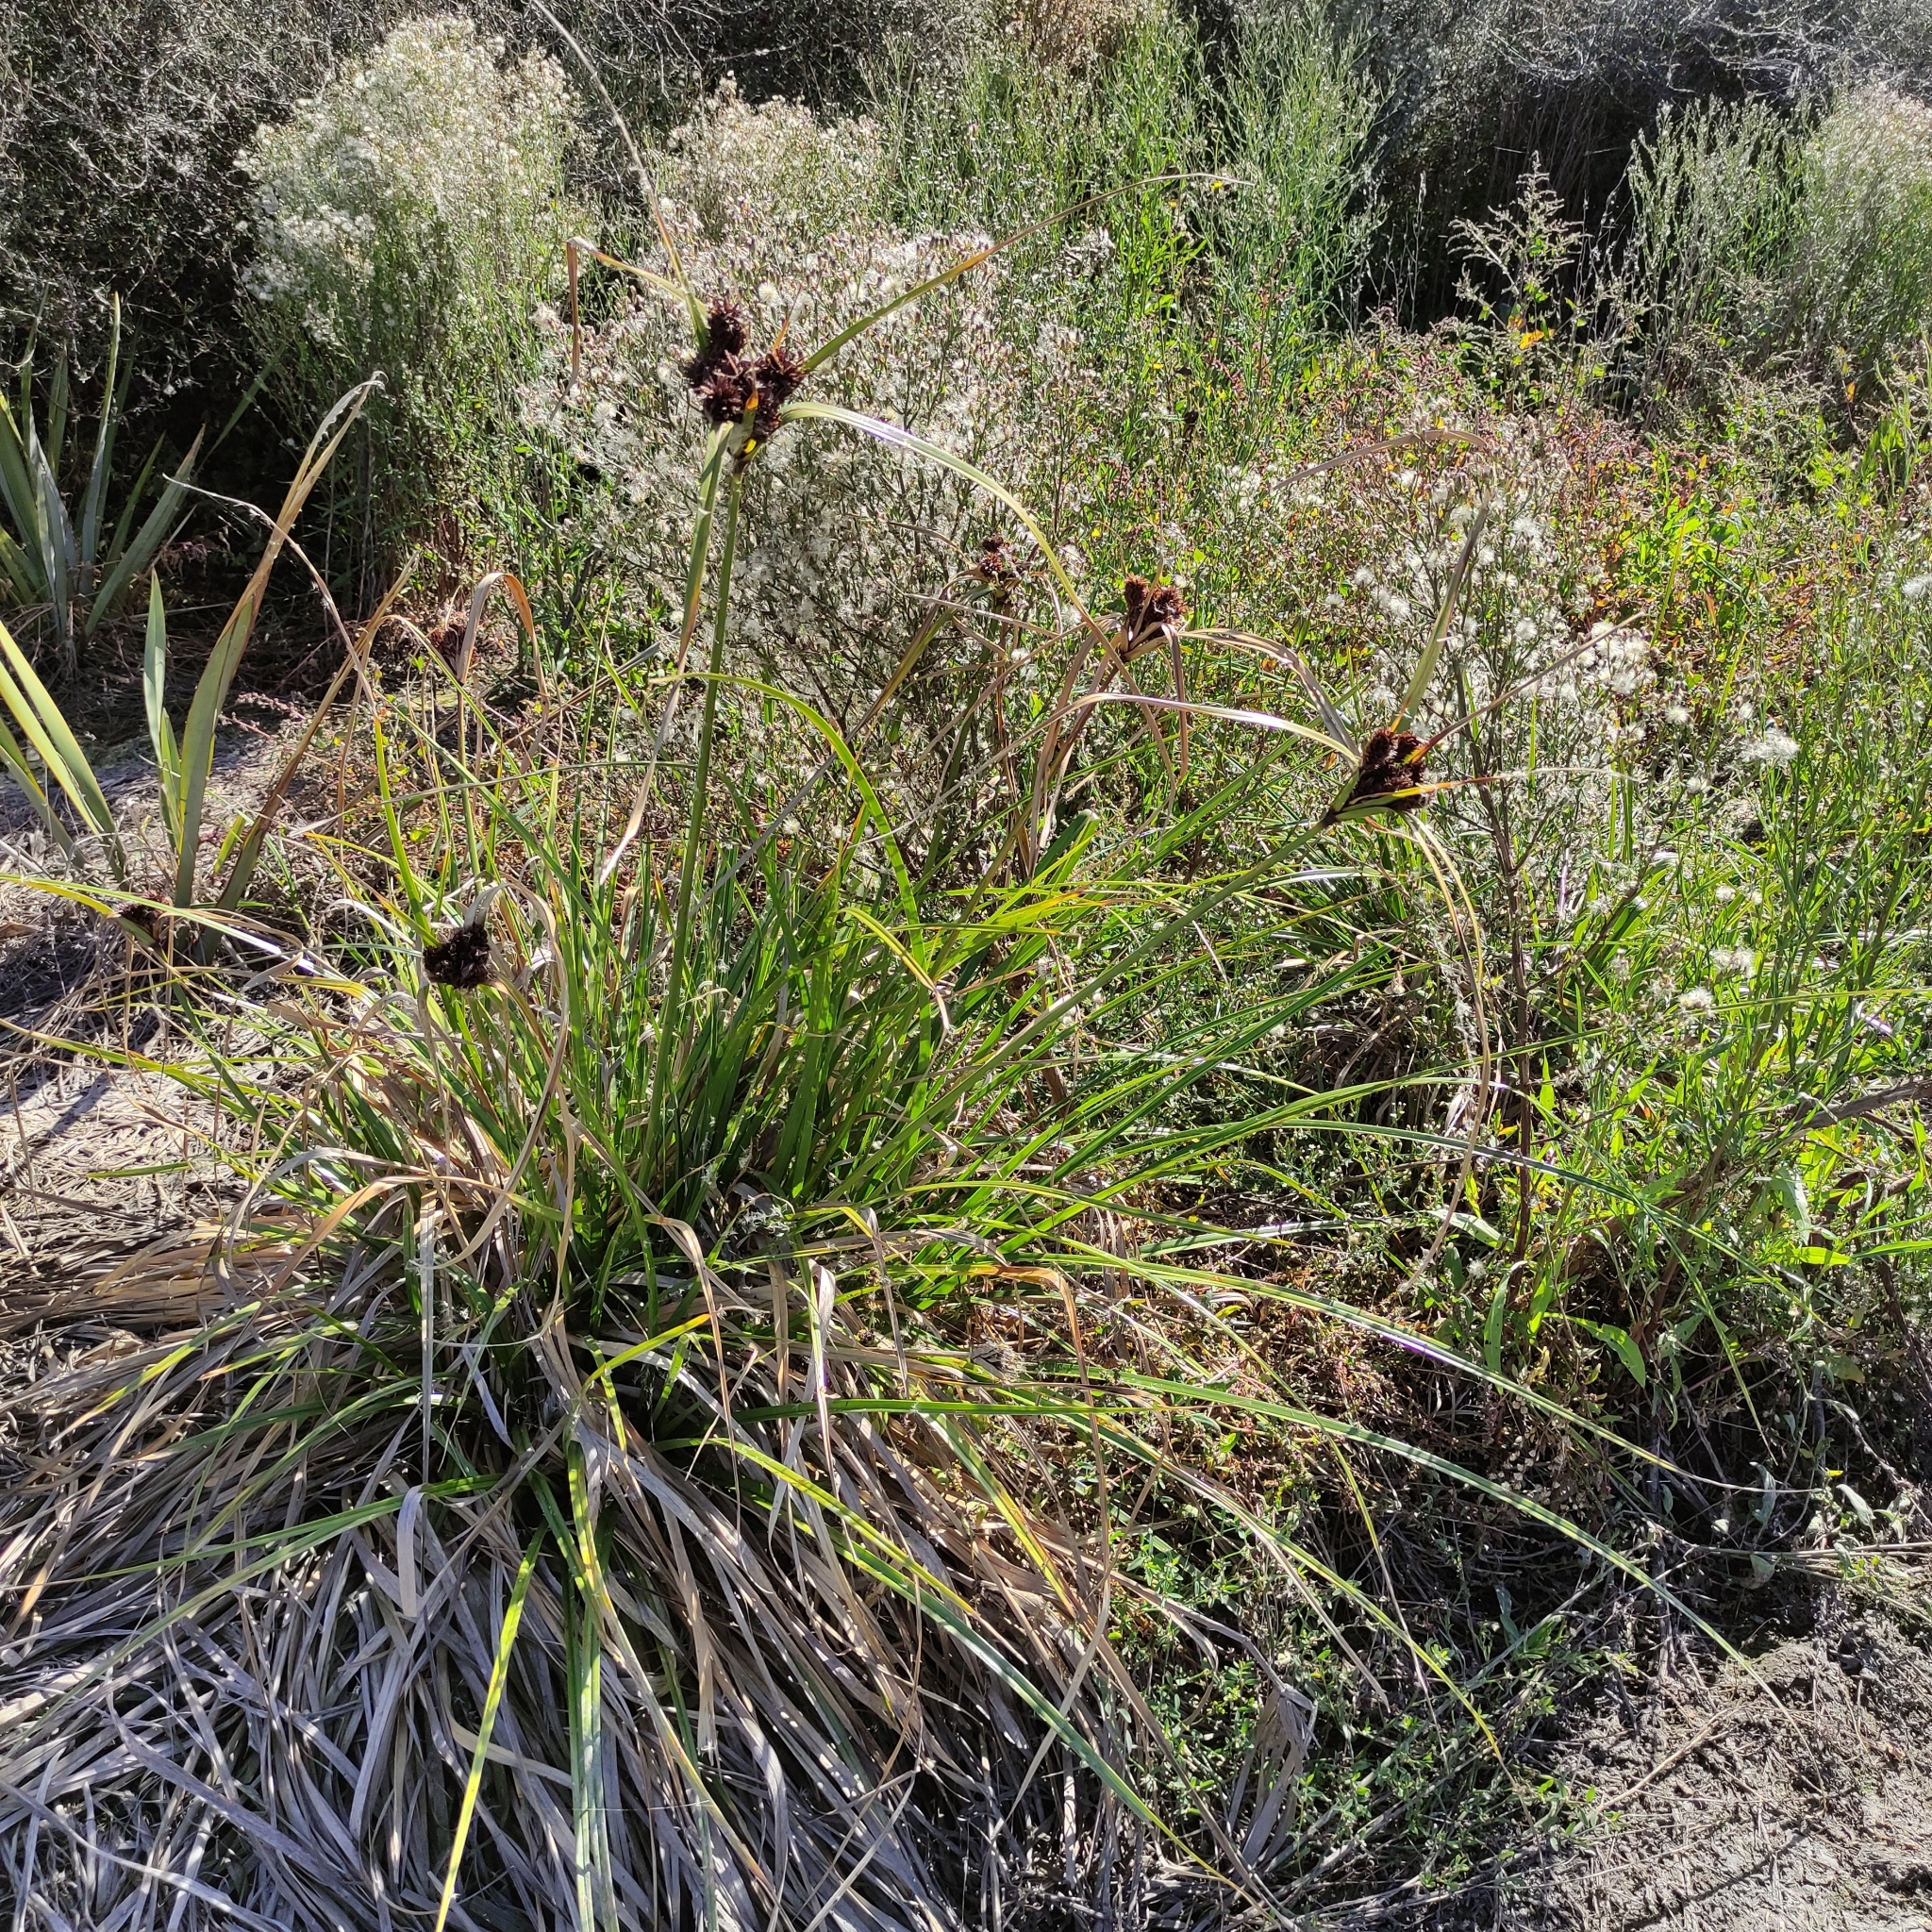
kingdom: Plantae
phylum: Tracheophyta
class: Liliopsida
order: Poales
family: Cyperaceae
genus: Cyperus
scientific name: Cyperus ustulatus
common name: Giant umbrella-sedge
